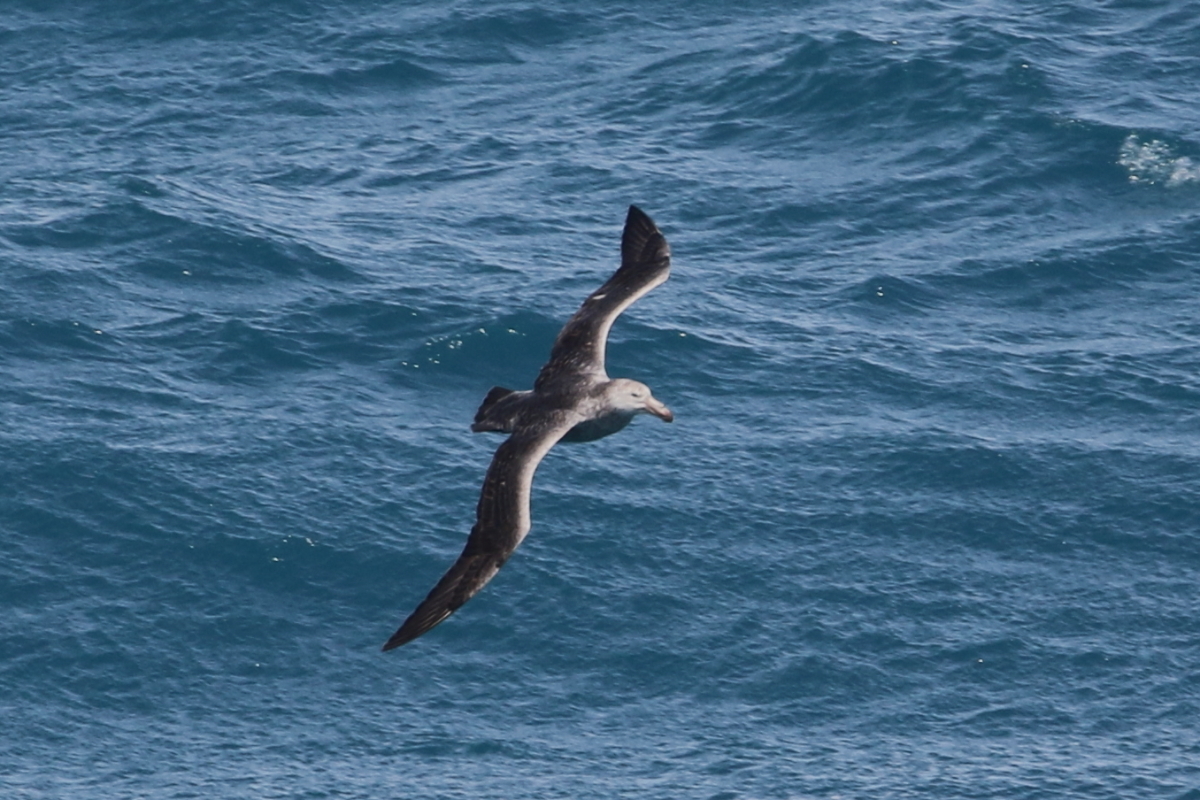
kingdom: Animalia
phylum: Chordata
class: Aves
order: Procellariiformes
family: Procellariidae
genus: Macronectes
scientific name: Macronectes halli
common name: Northern giant petrel
